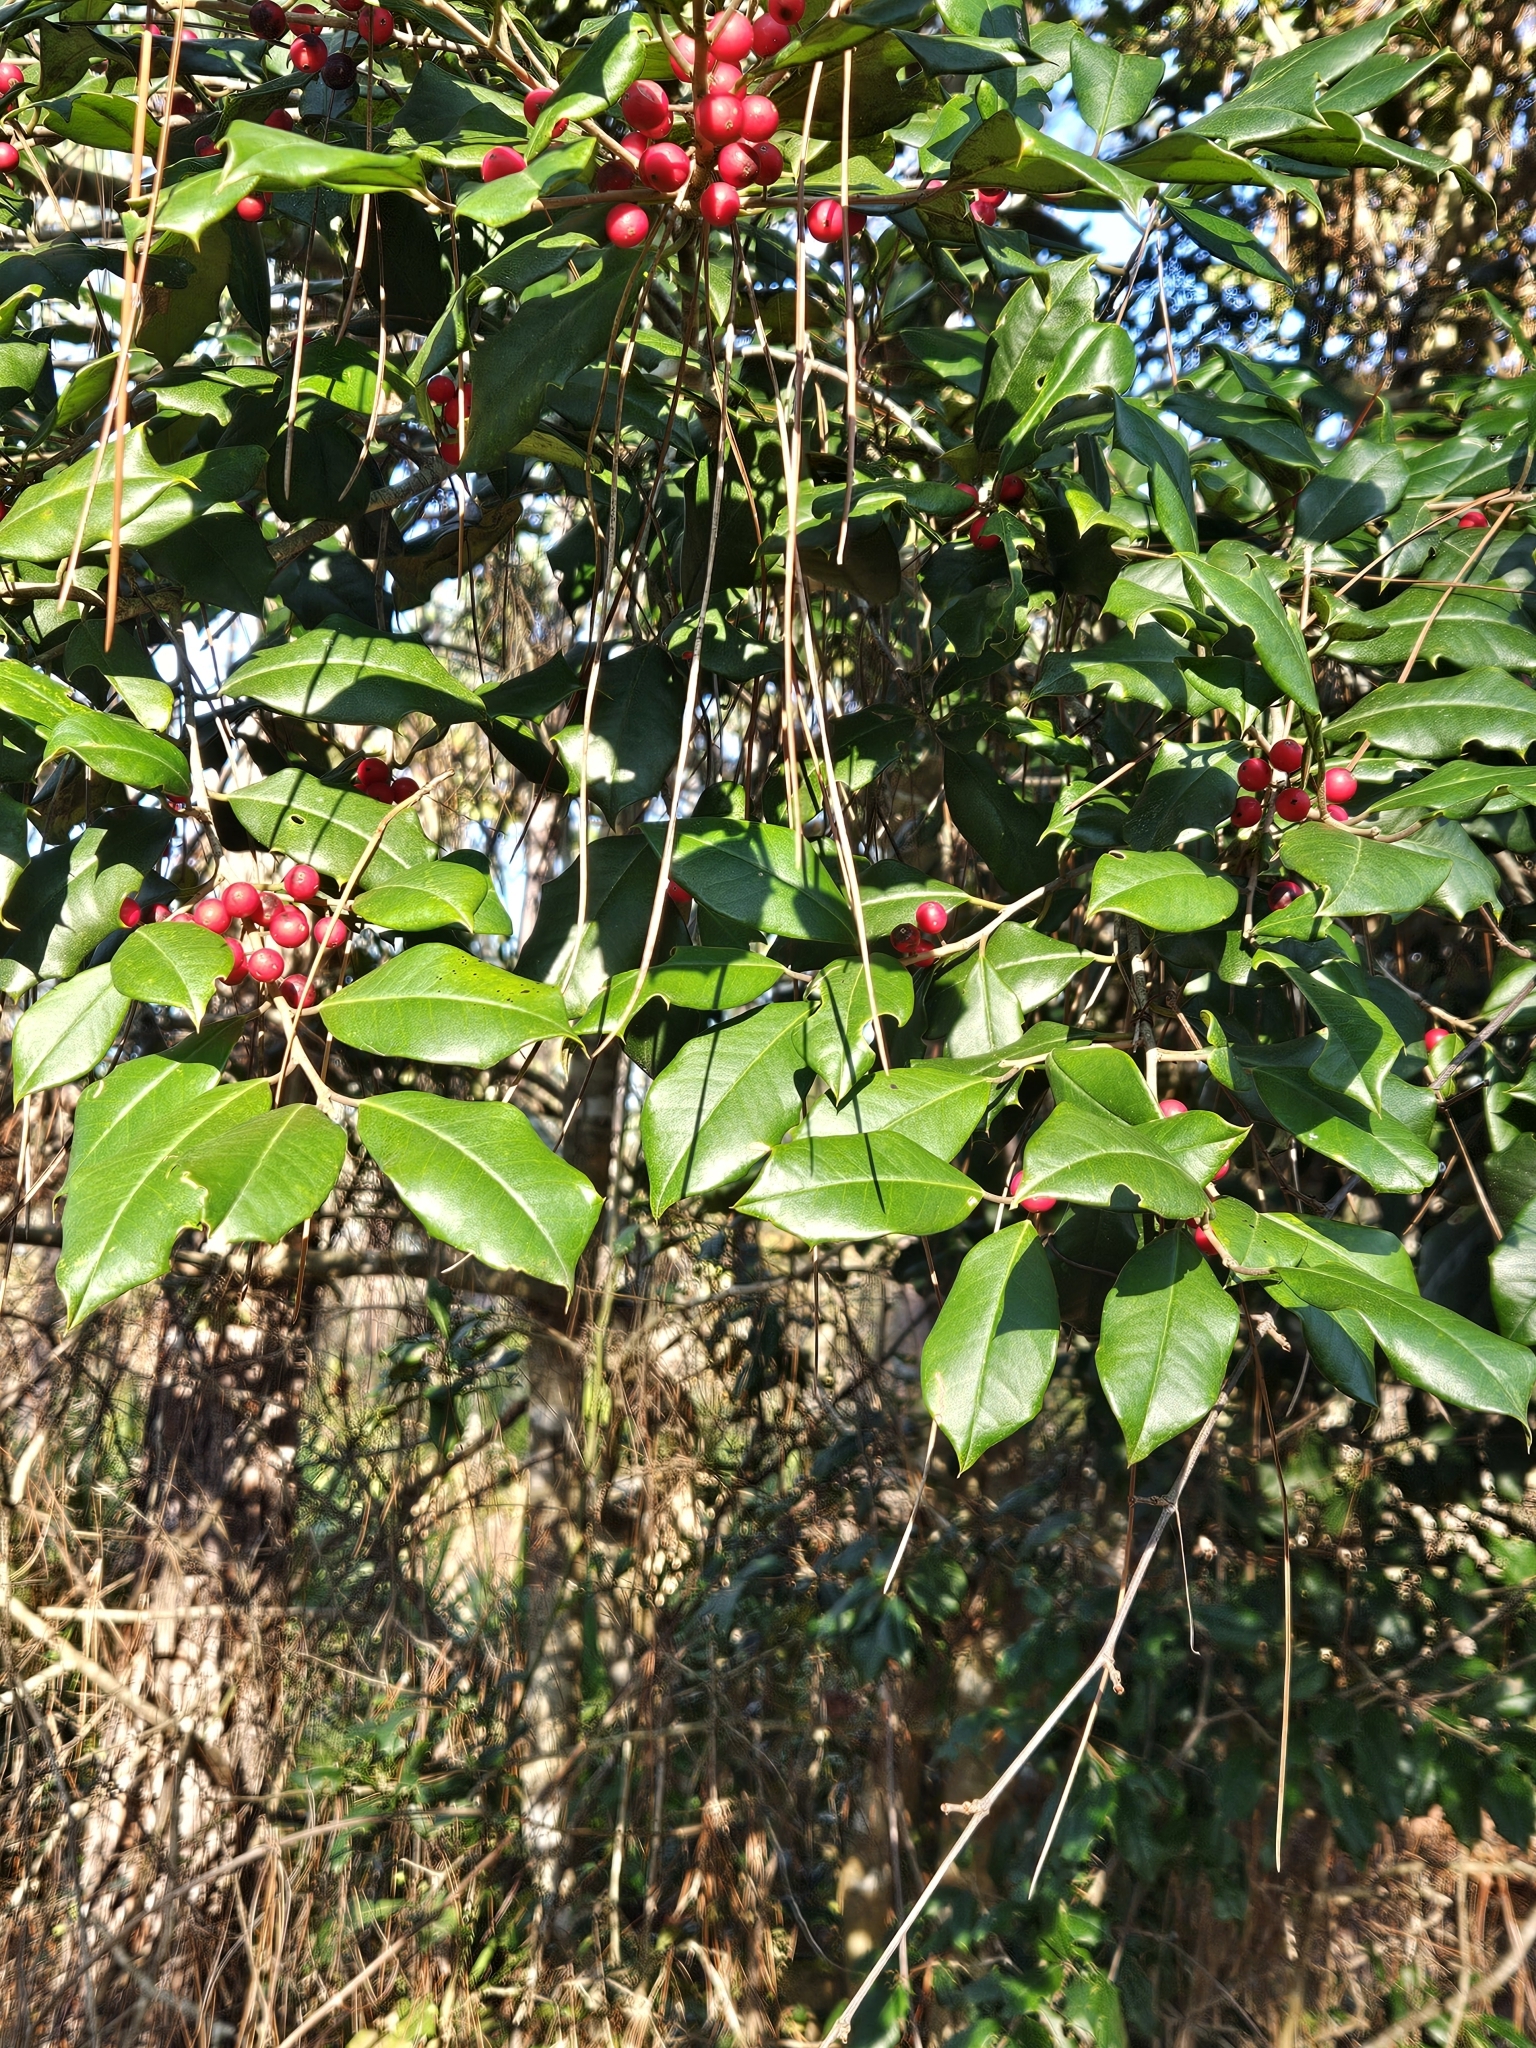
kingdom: Plantae
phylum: Tracheophyta
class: Magnoliopsida
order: Aquifoliales
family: Aquifoliaceae
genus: Ilex
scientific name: Ilex opaca
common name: American holly
